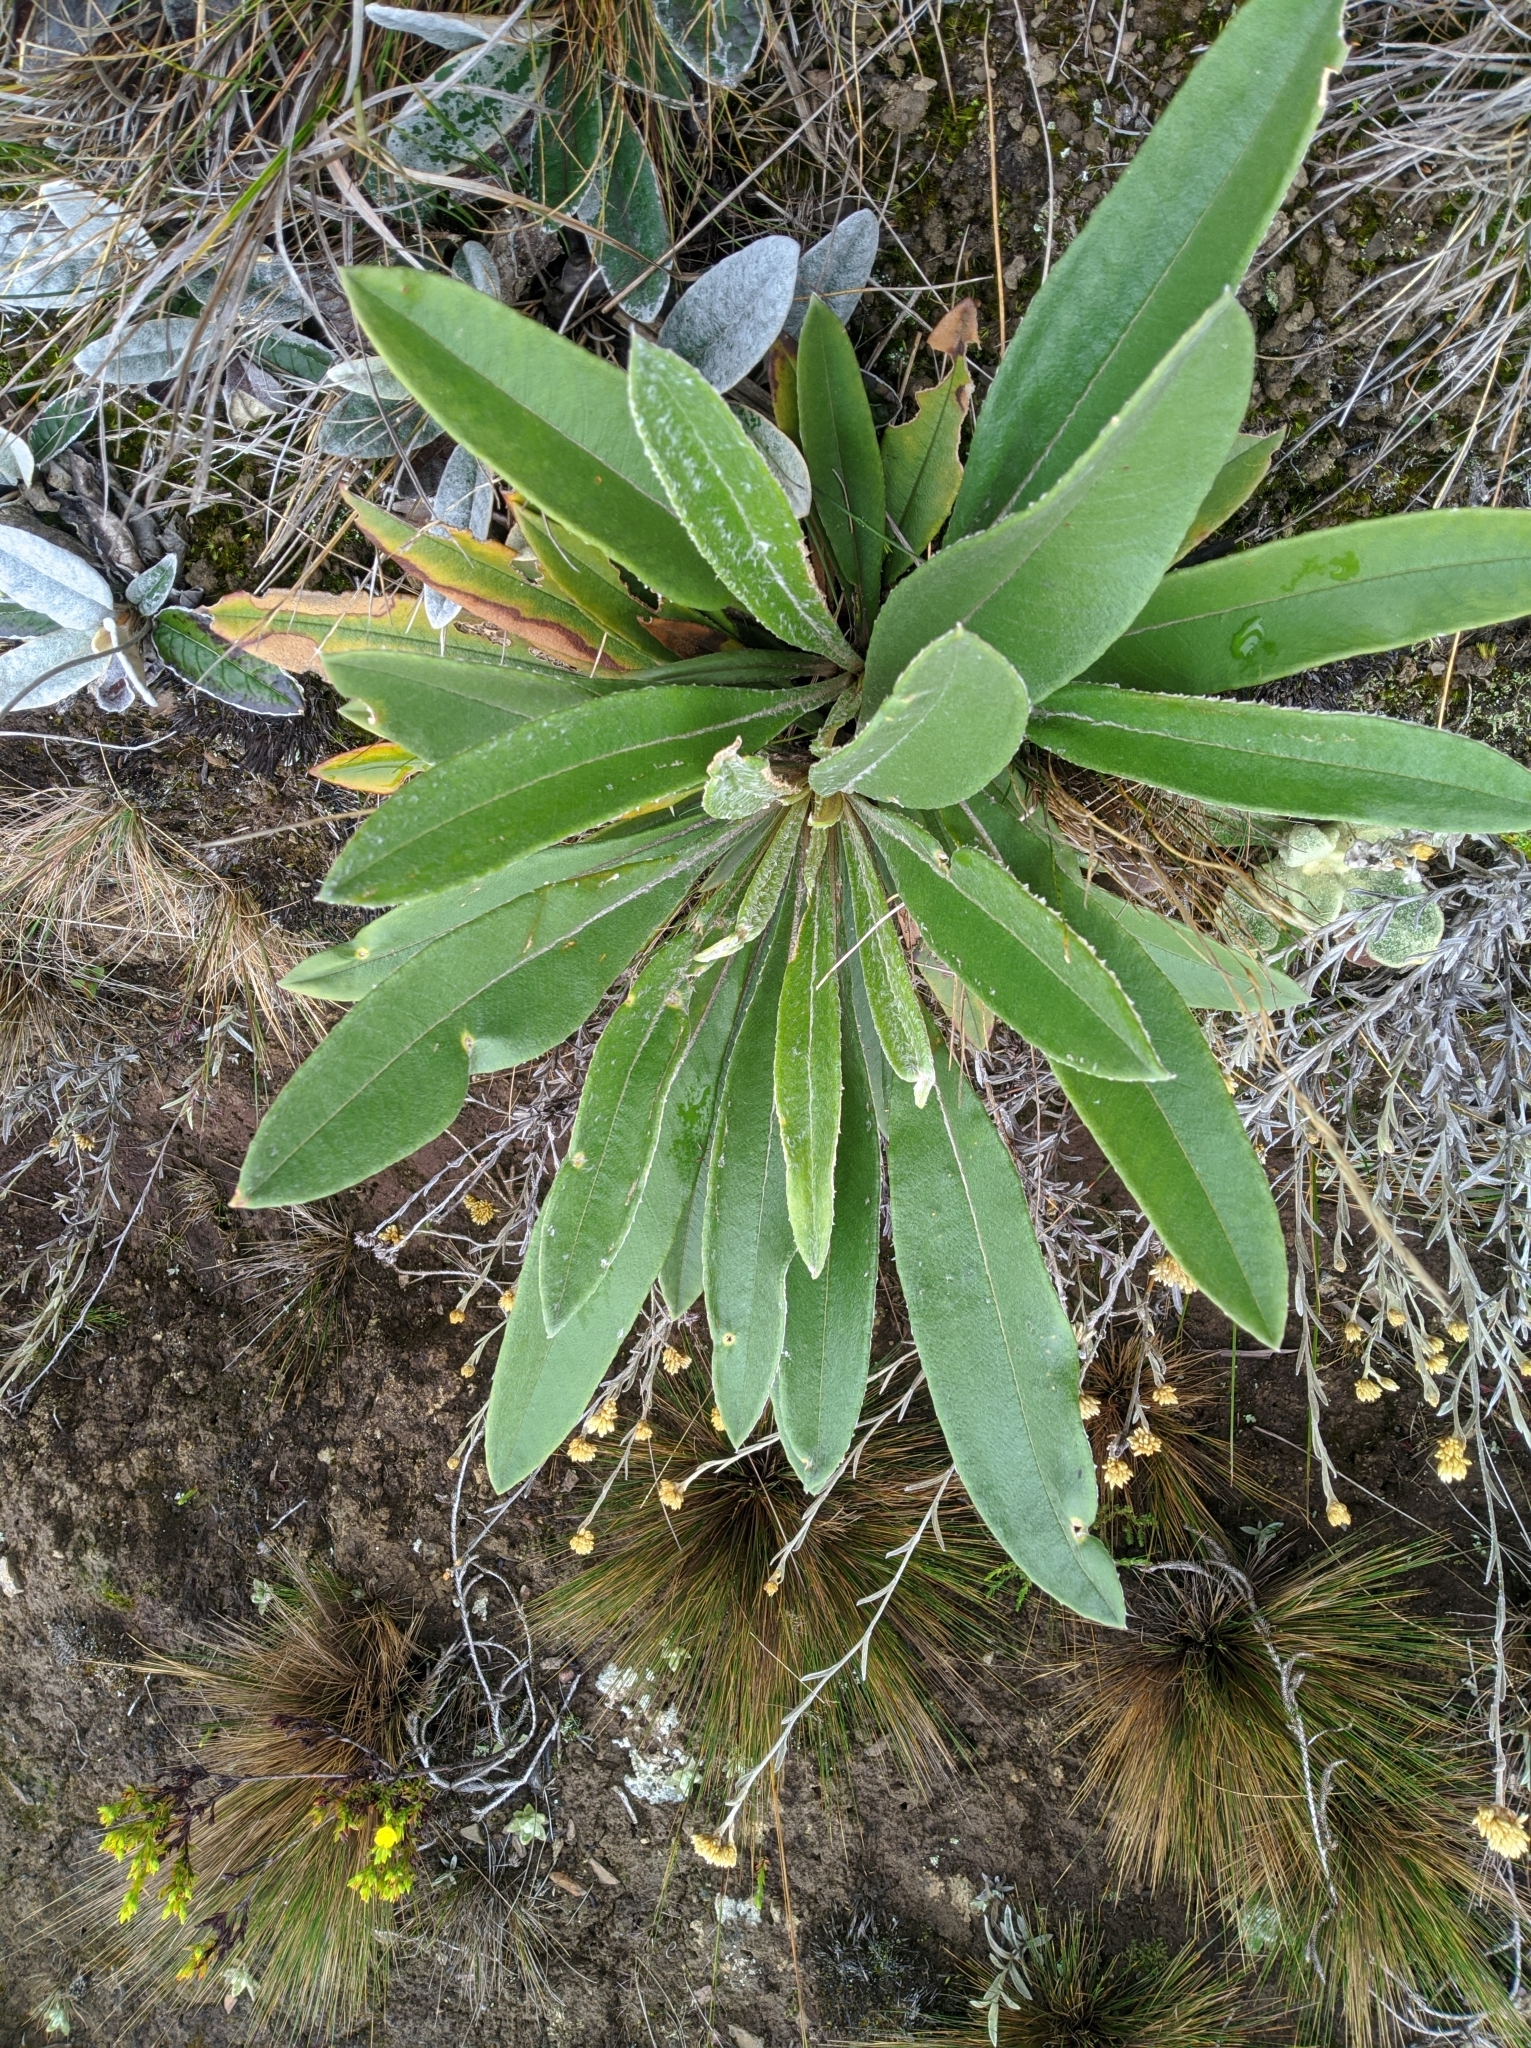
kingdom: Plantae
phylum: Tracheophyta
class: Magnoliopsida
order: Asterales
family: Asteraceae
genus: Espeletia
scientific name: Espeletia bracteosa
